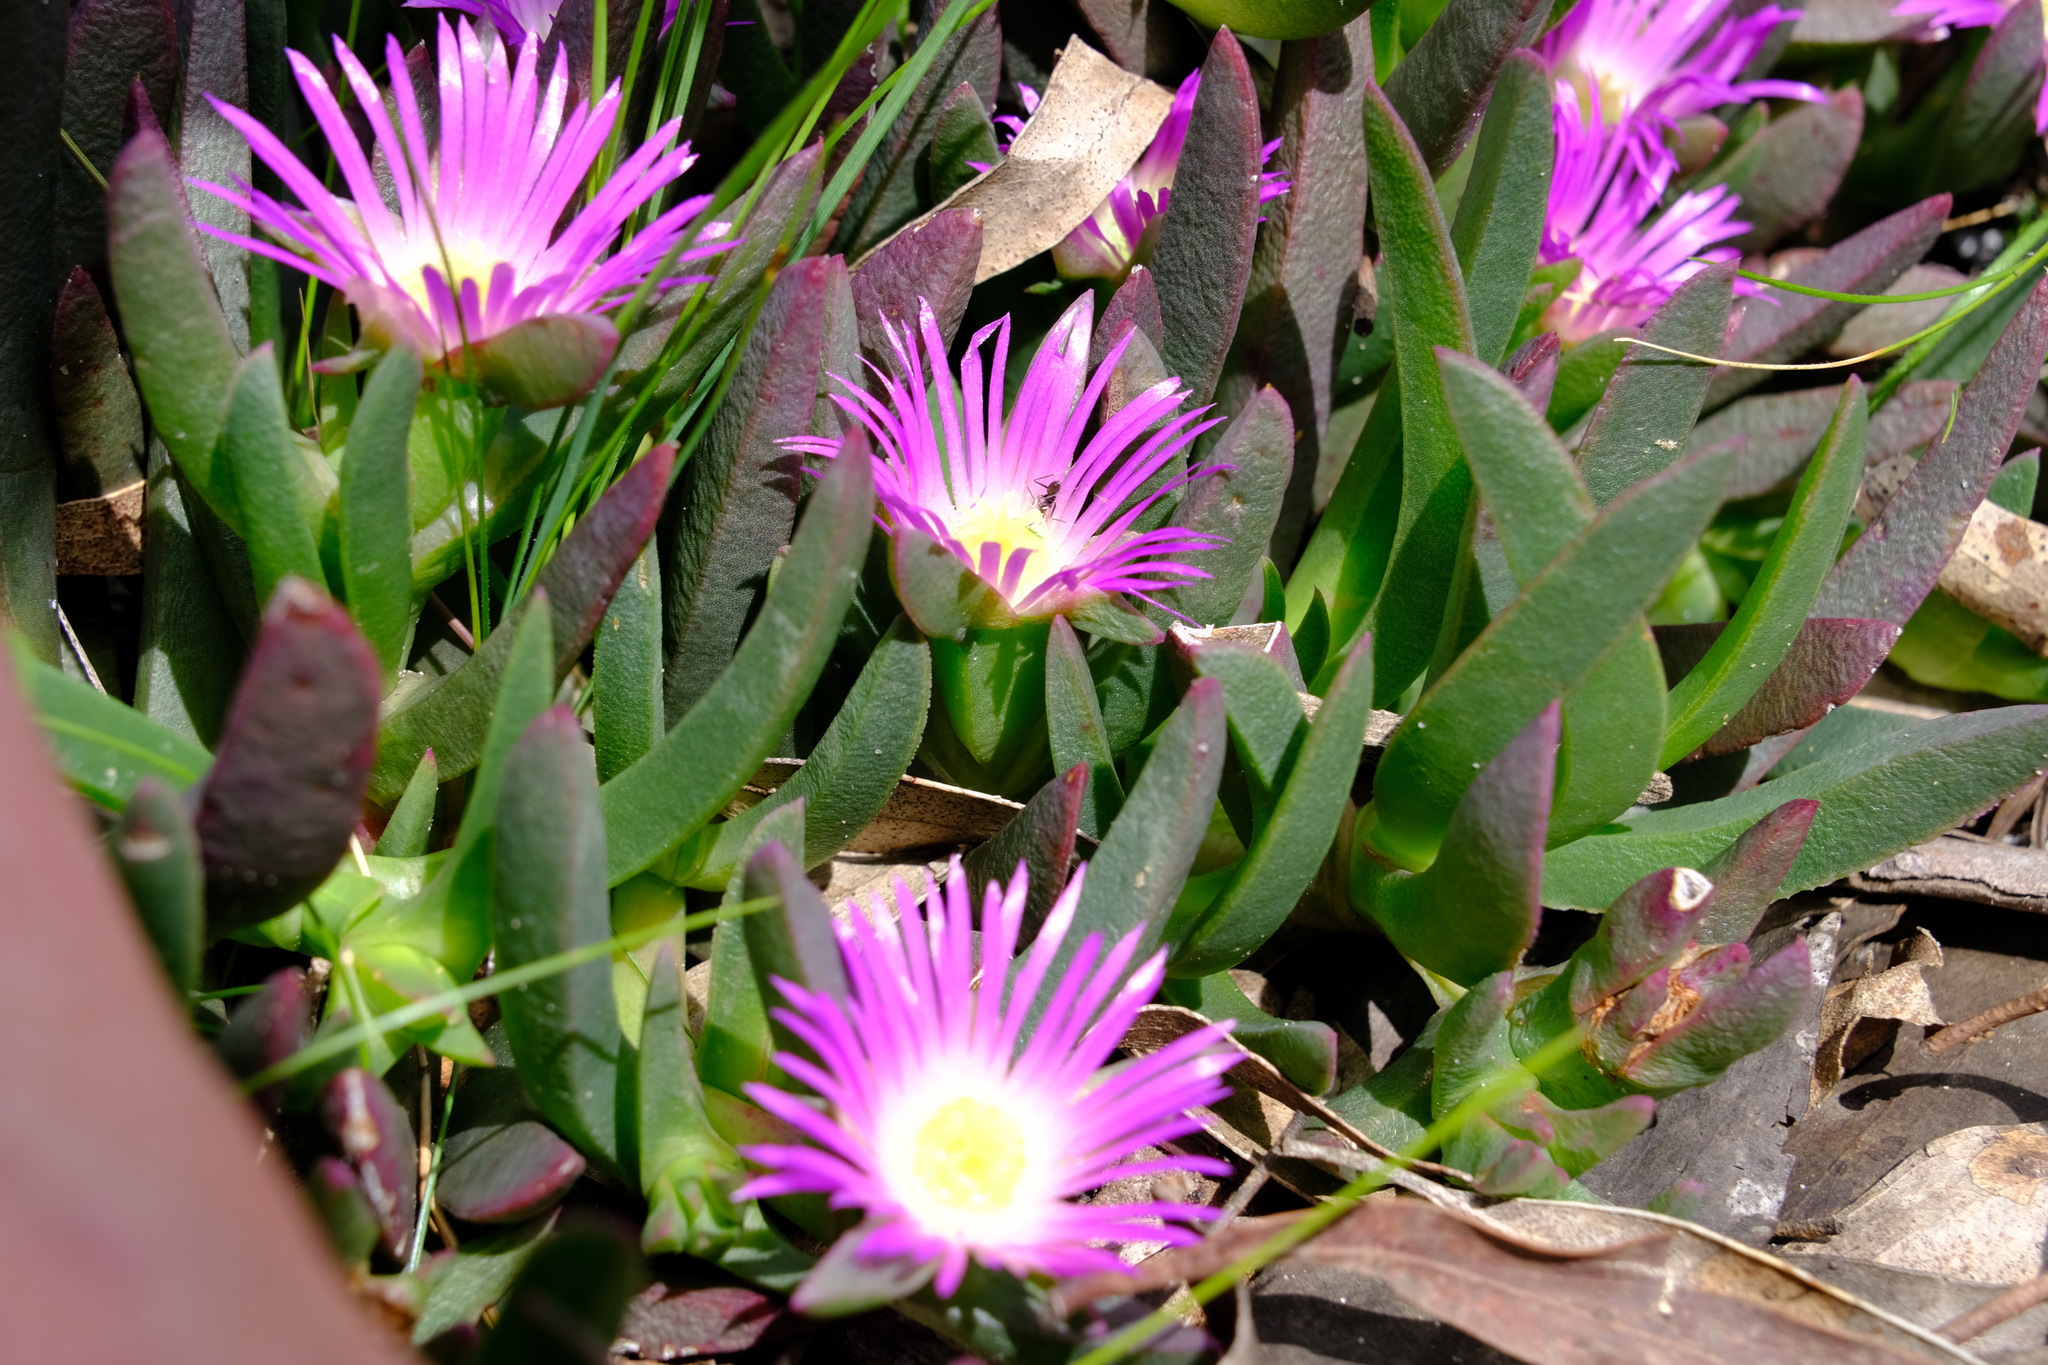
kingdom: Plantae
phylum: Tracheophyta
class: Magnoliopsida
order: Caryophyllales
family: Aizoaceae
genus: Carpobrotus
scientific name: Carpobrotus modestus
